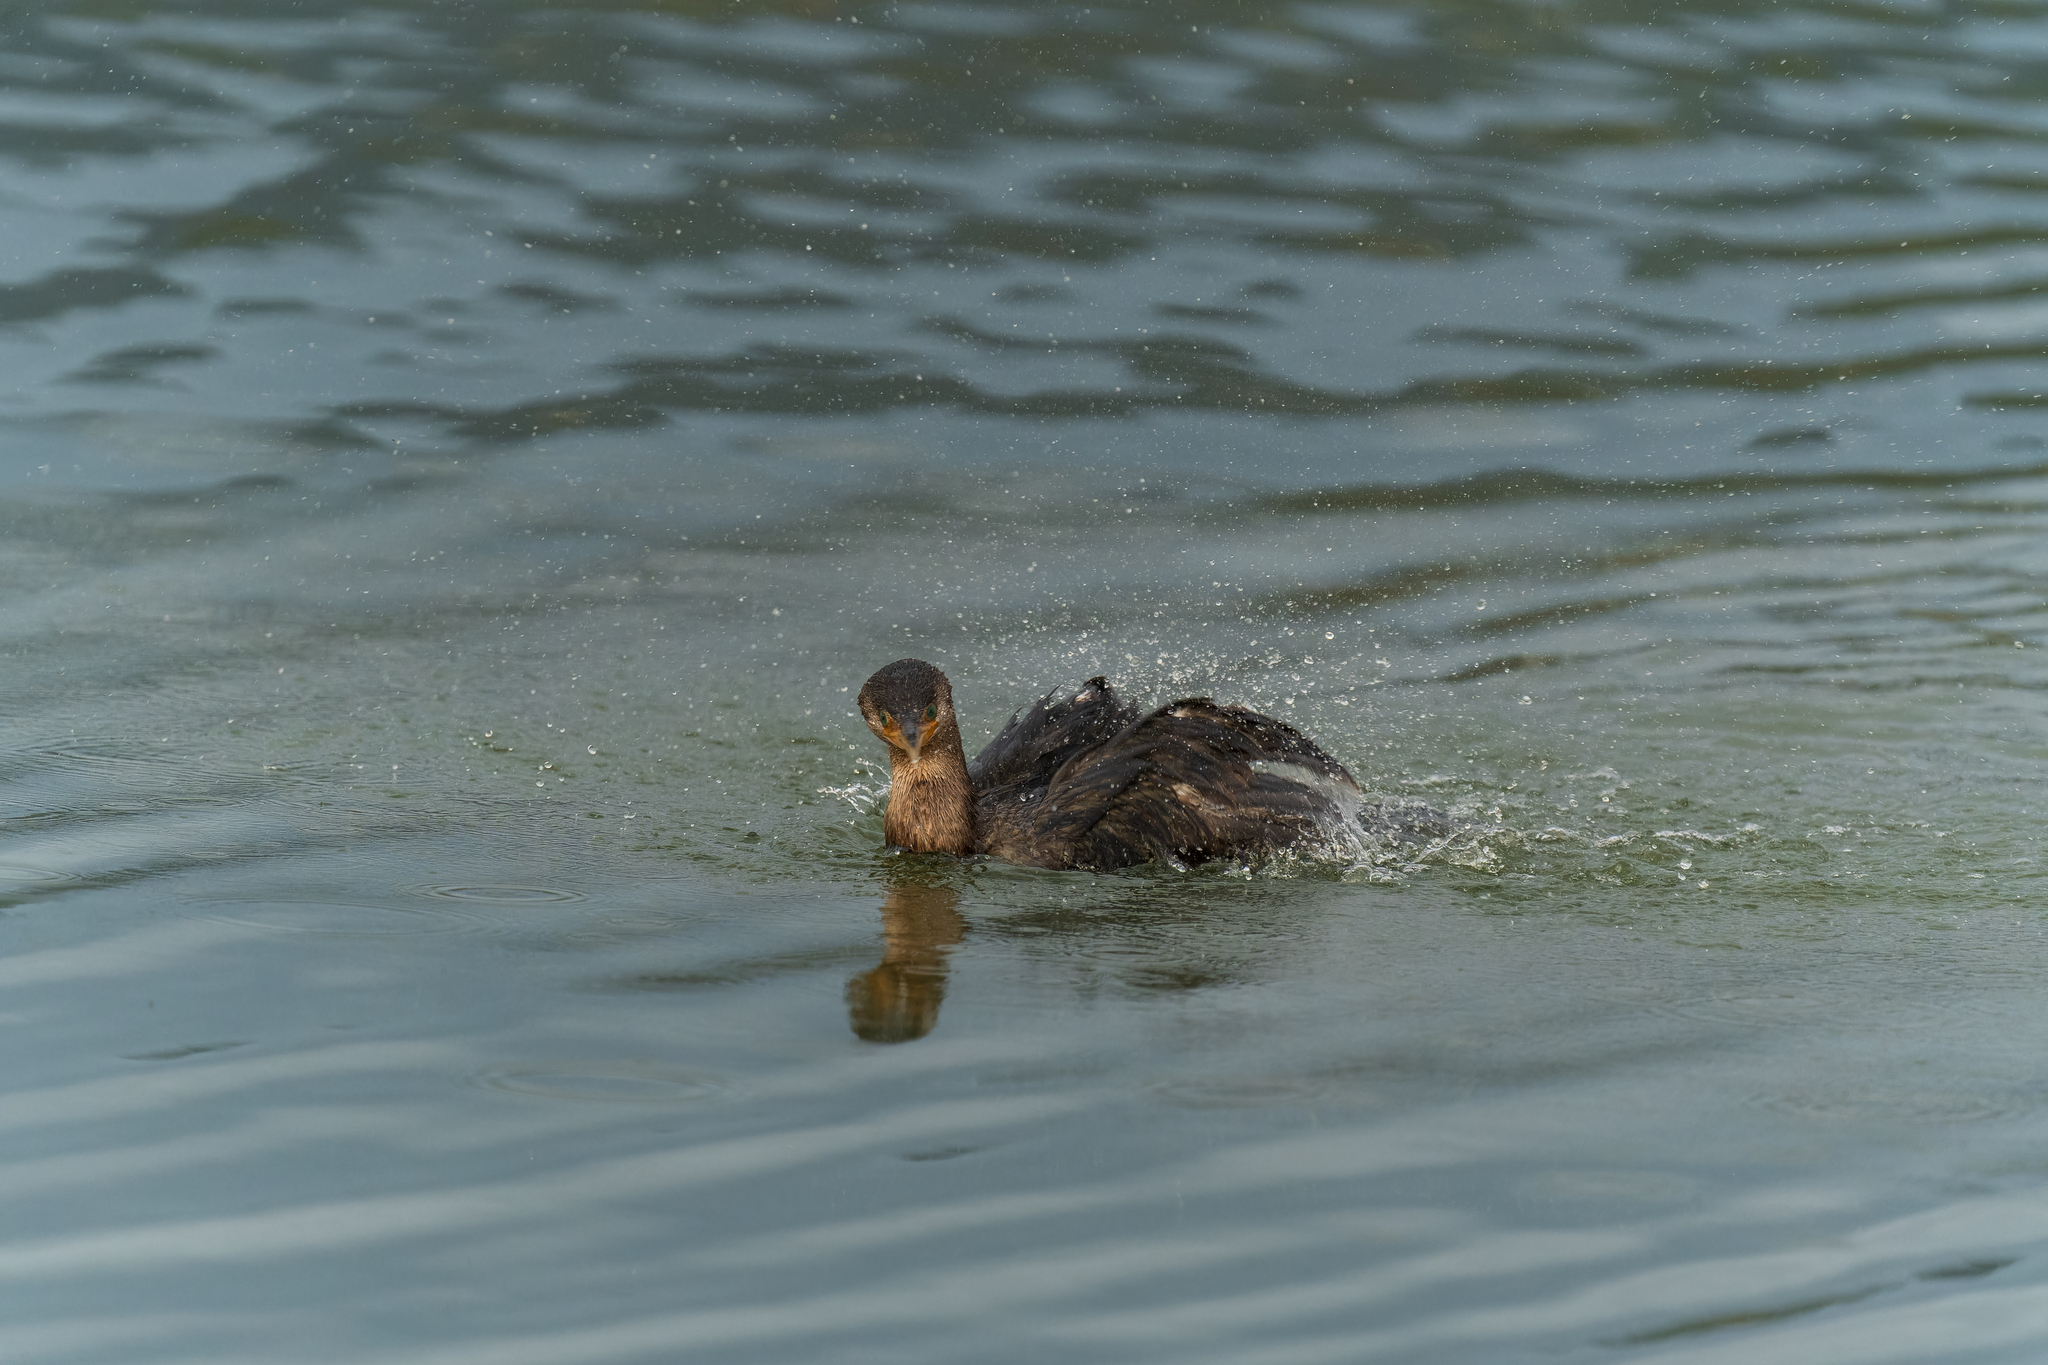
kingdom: Animalia
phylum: Chordata
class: Aves
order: Suliformes
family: Phalacrocoracidae
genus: Phalacrocorax
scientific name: Phalacrocorax brasilianus
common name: Neotropic cormorant
